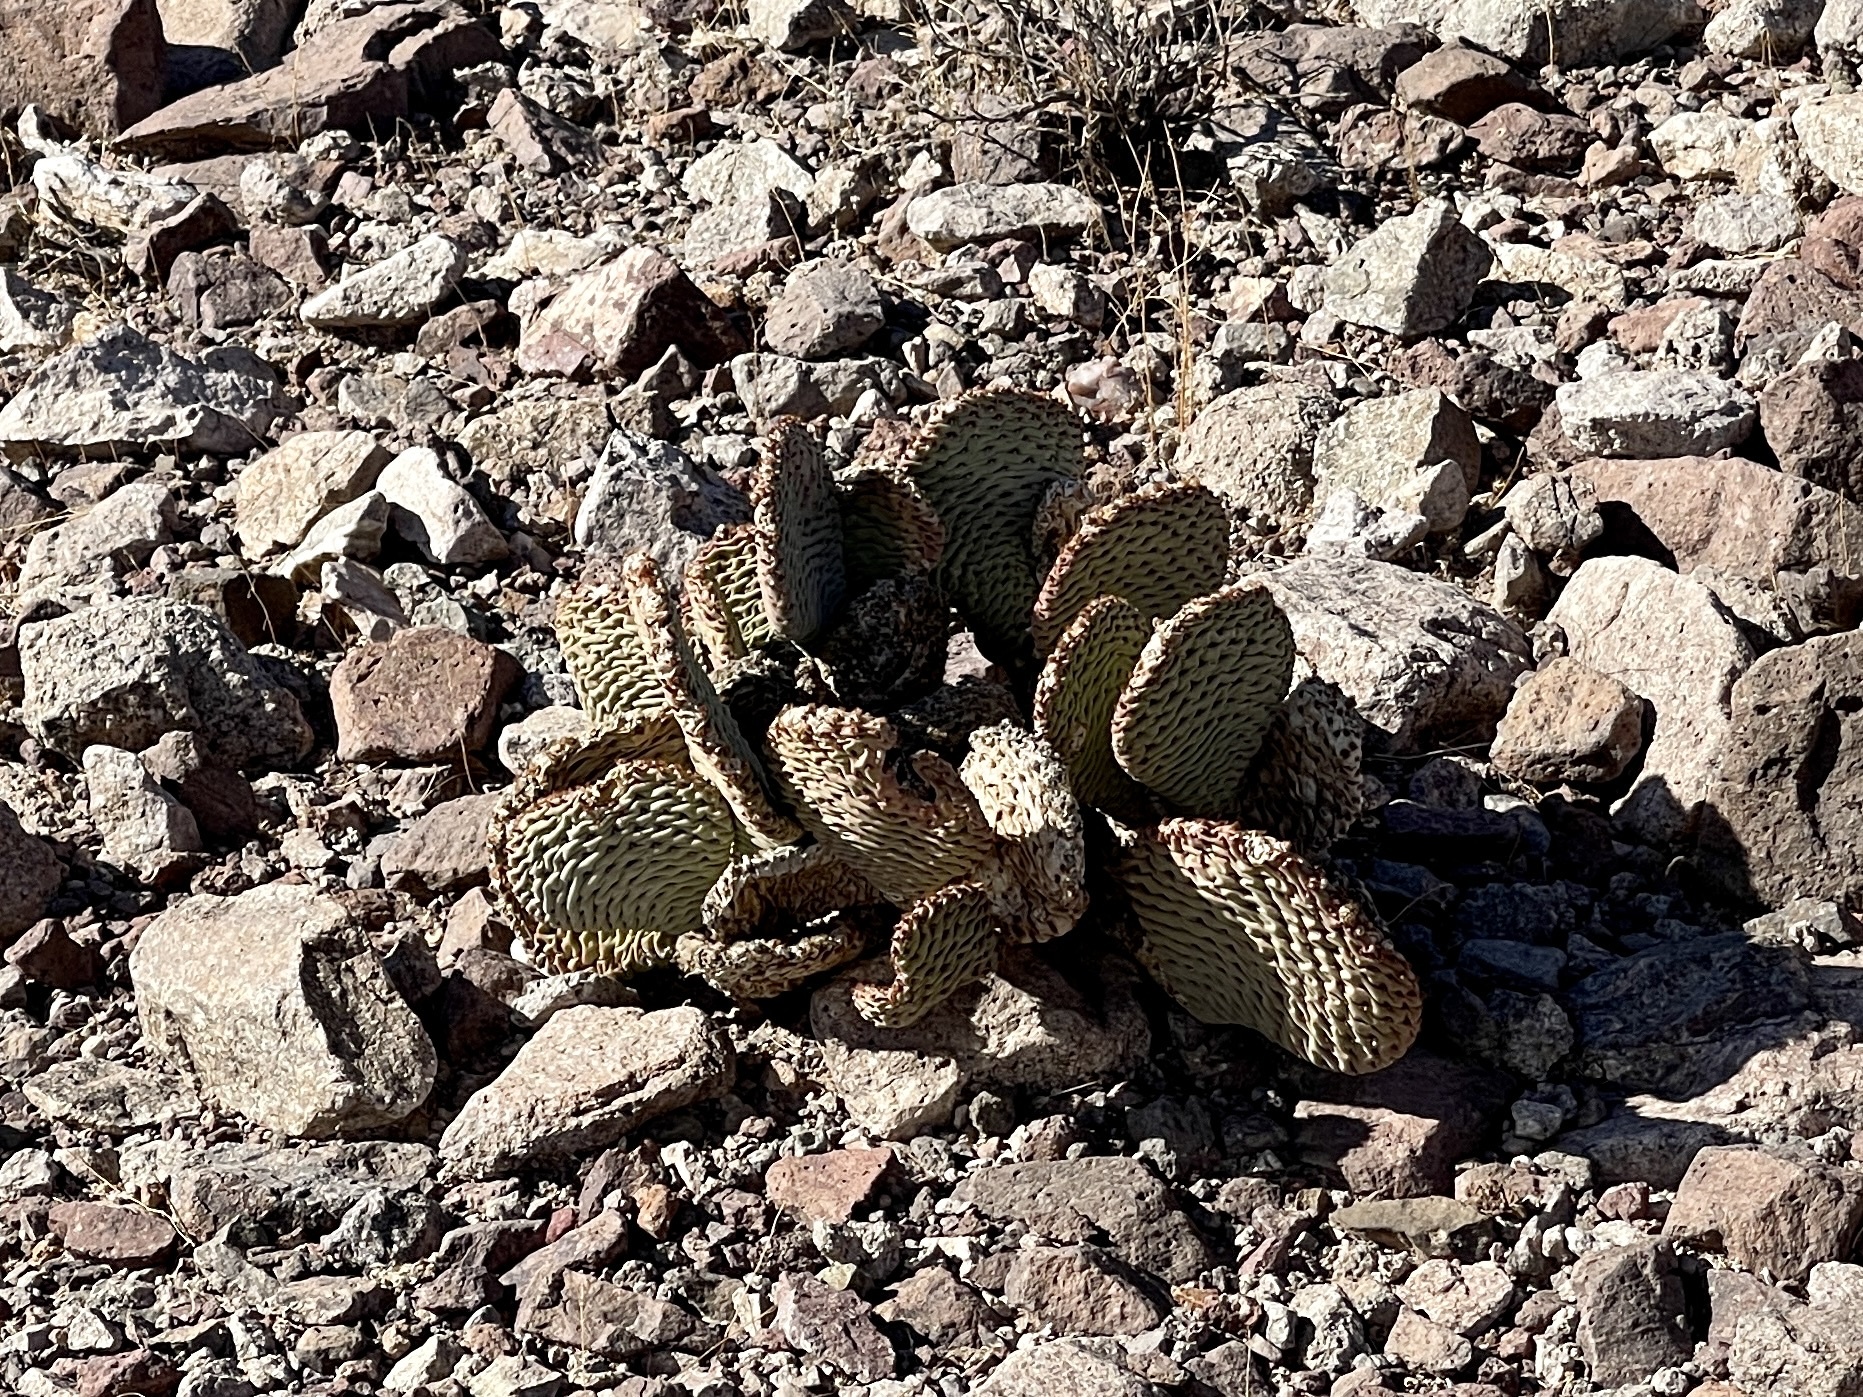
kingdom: Plantae
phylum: Tracheophyta
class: Magnoliopsida
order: Caryophyllales
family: Cactaceae
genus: Opuntia
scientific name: Opuntia basilaris
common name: Beavertail prickly-pear
